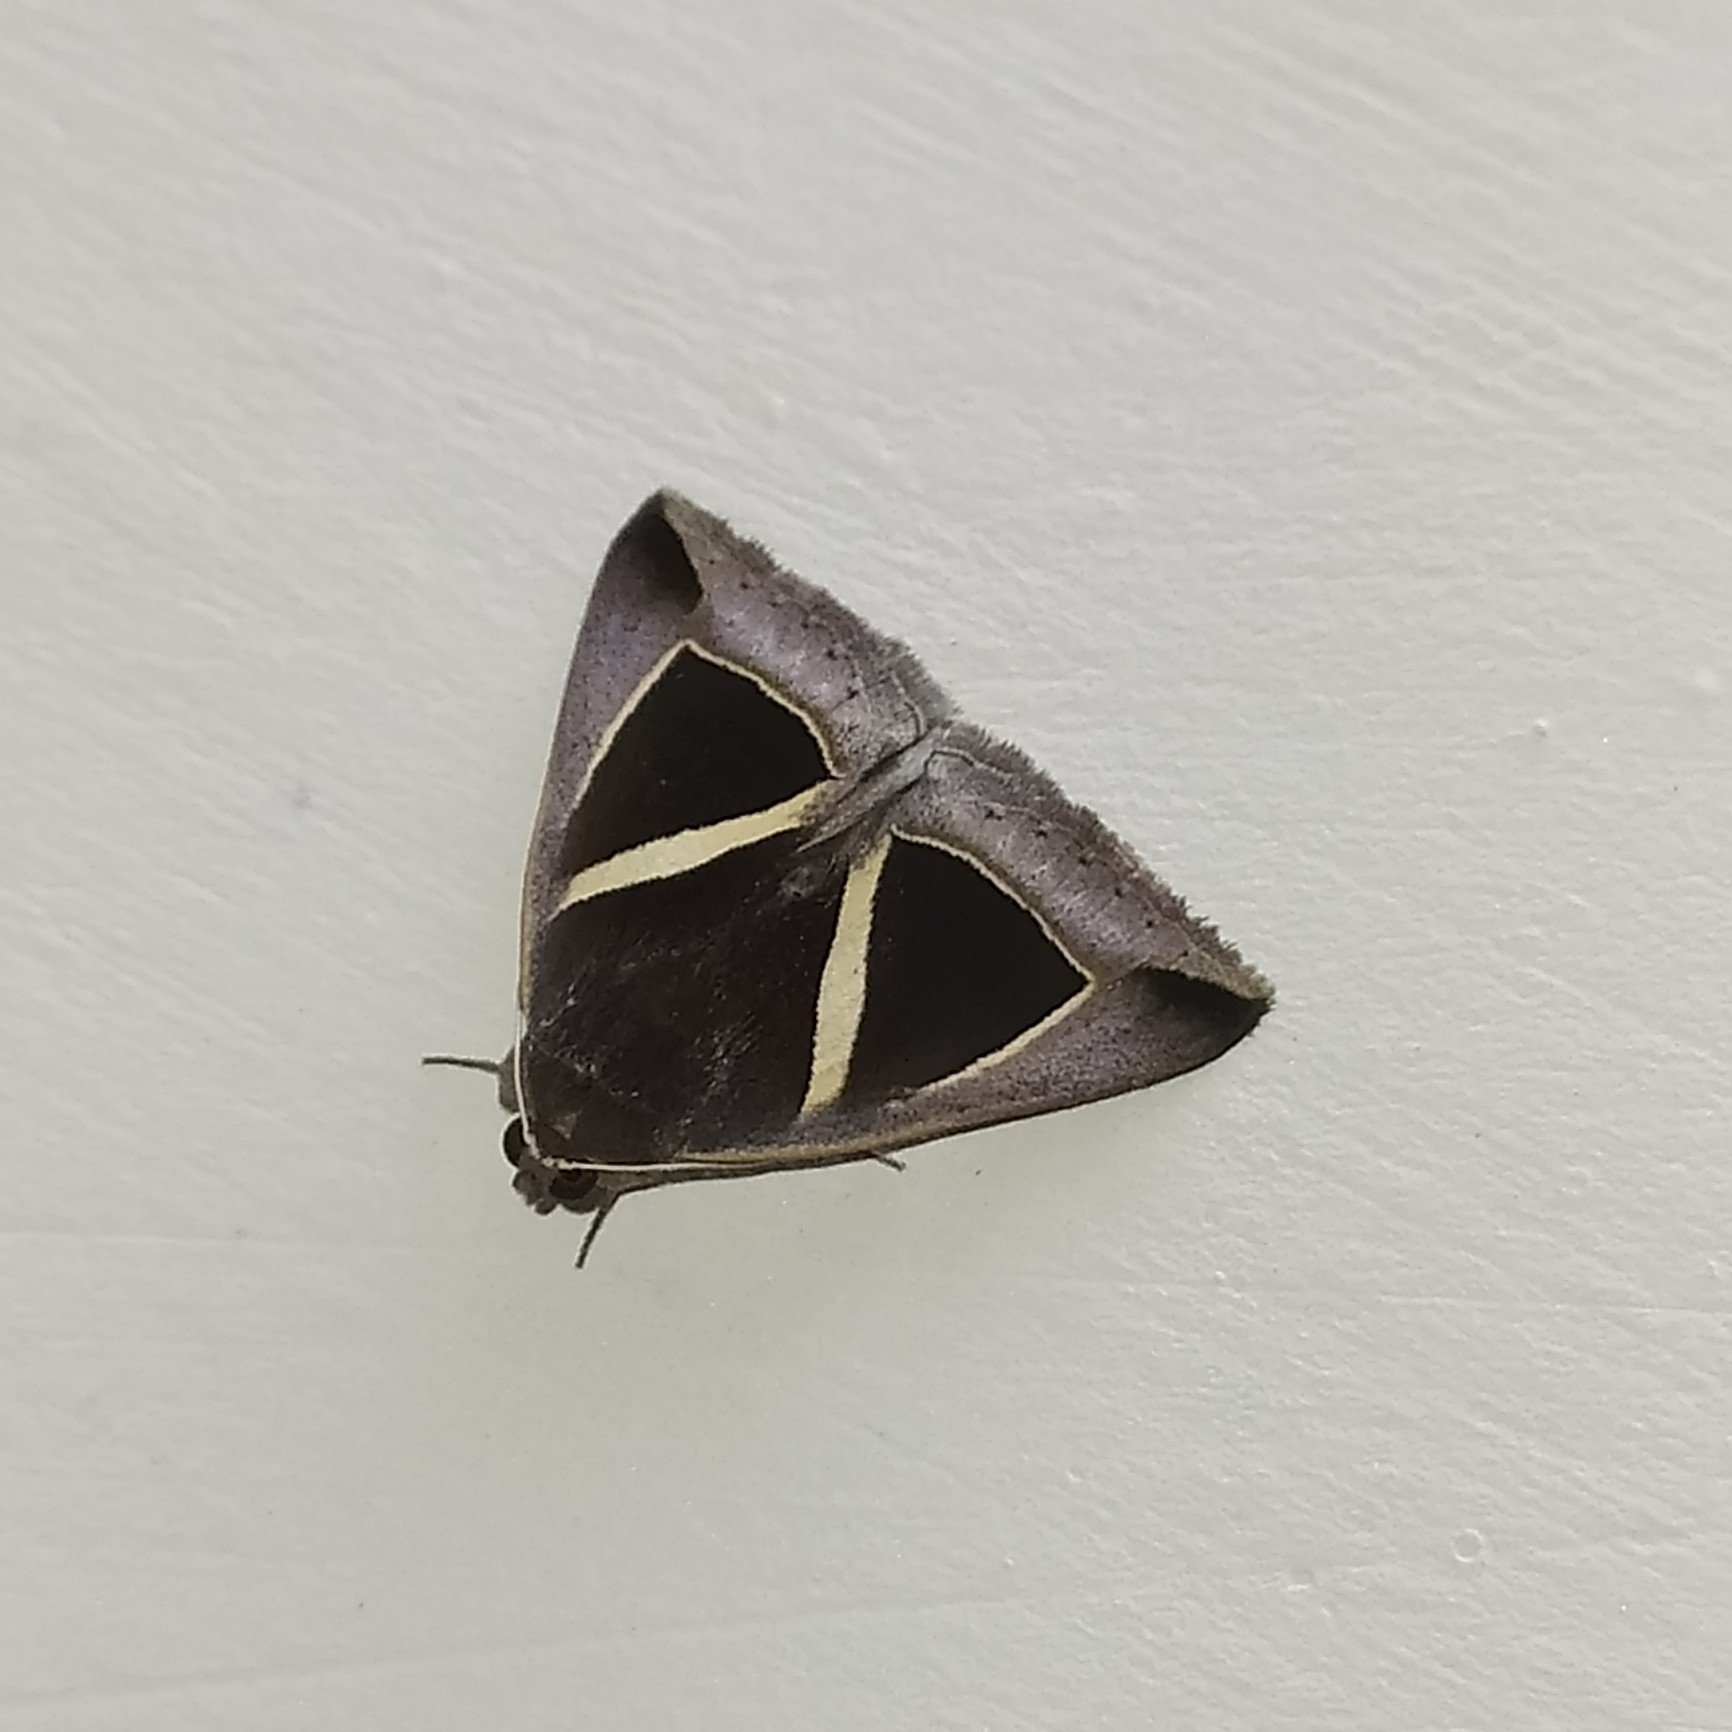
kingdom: Animalia
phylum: Arthropoda
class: Insecta
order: Lepidoptera
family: Erebidae
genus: Chalciope
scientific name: Chalciope mygdon
